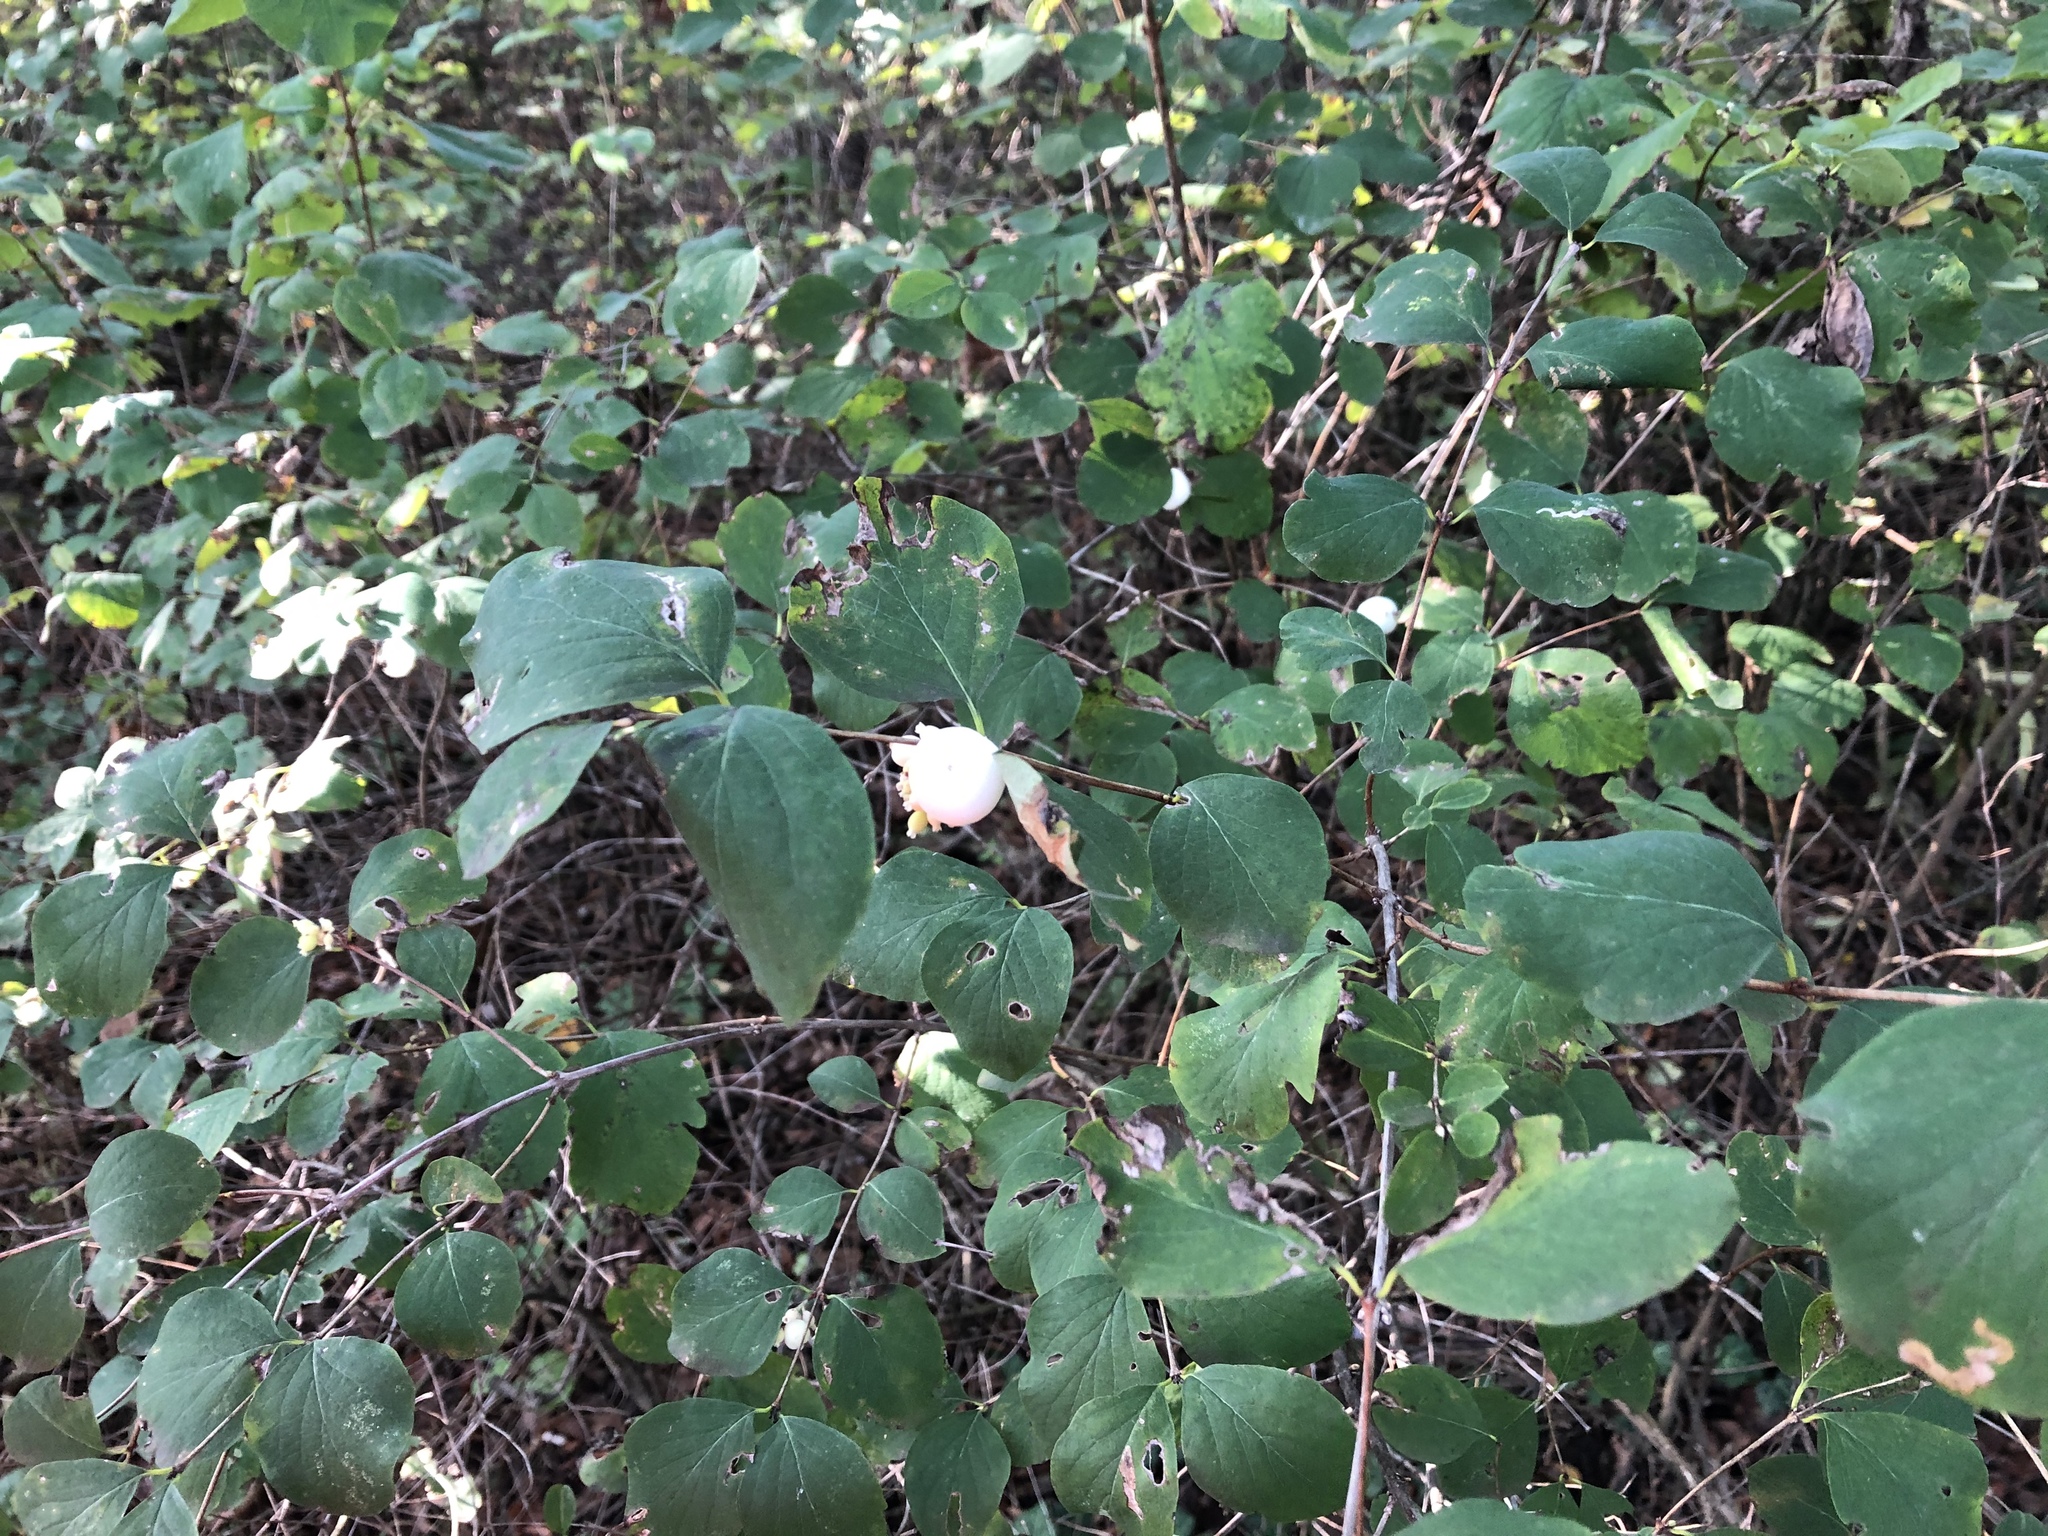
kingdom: Plantae
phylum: Tracheophyta
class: Magnoliopsida
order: Dipsacales
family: Caprifoliaceae
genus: Symphoricarpos
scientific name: Symphoricarpos albus
